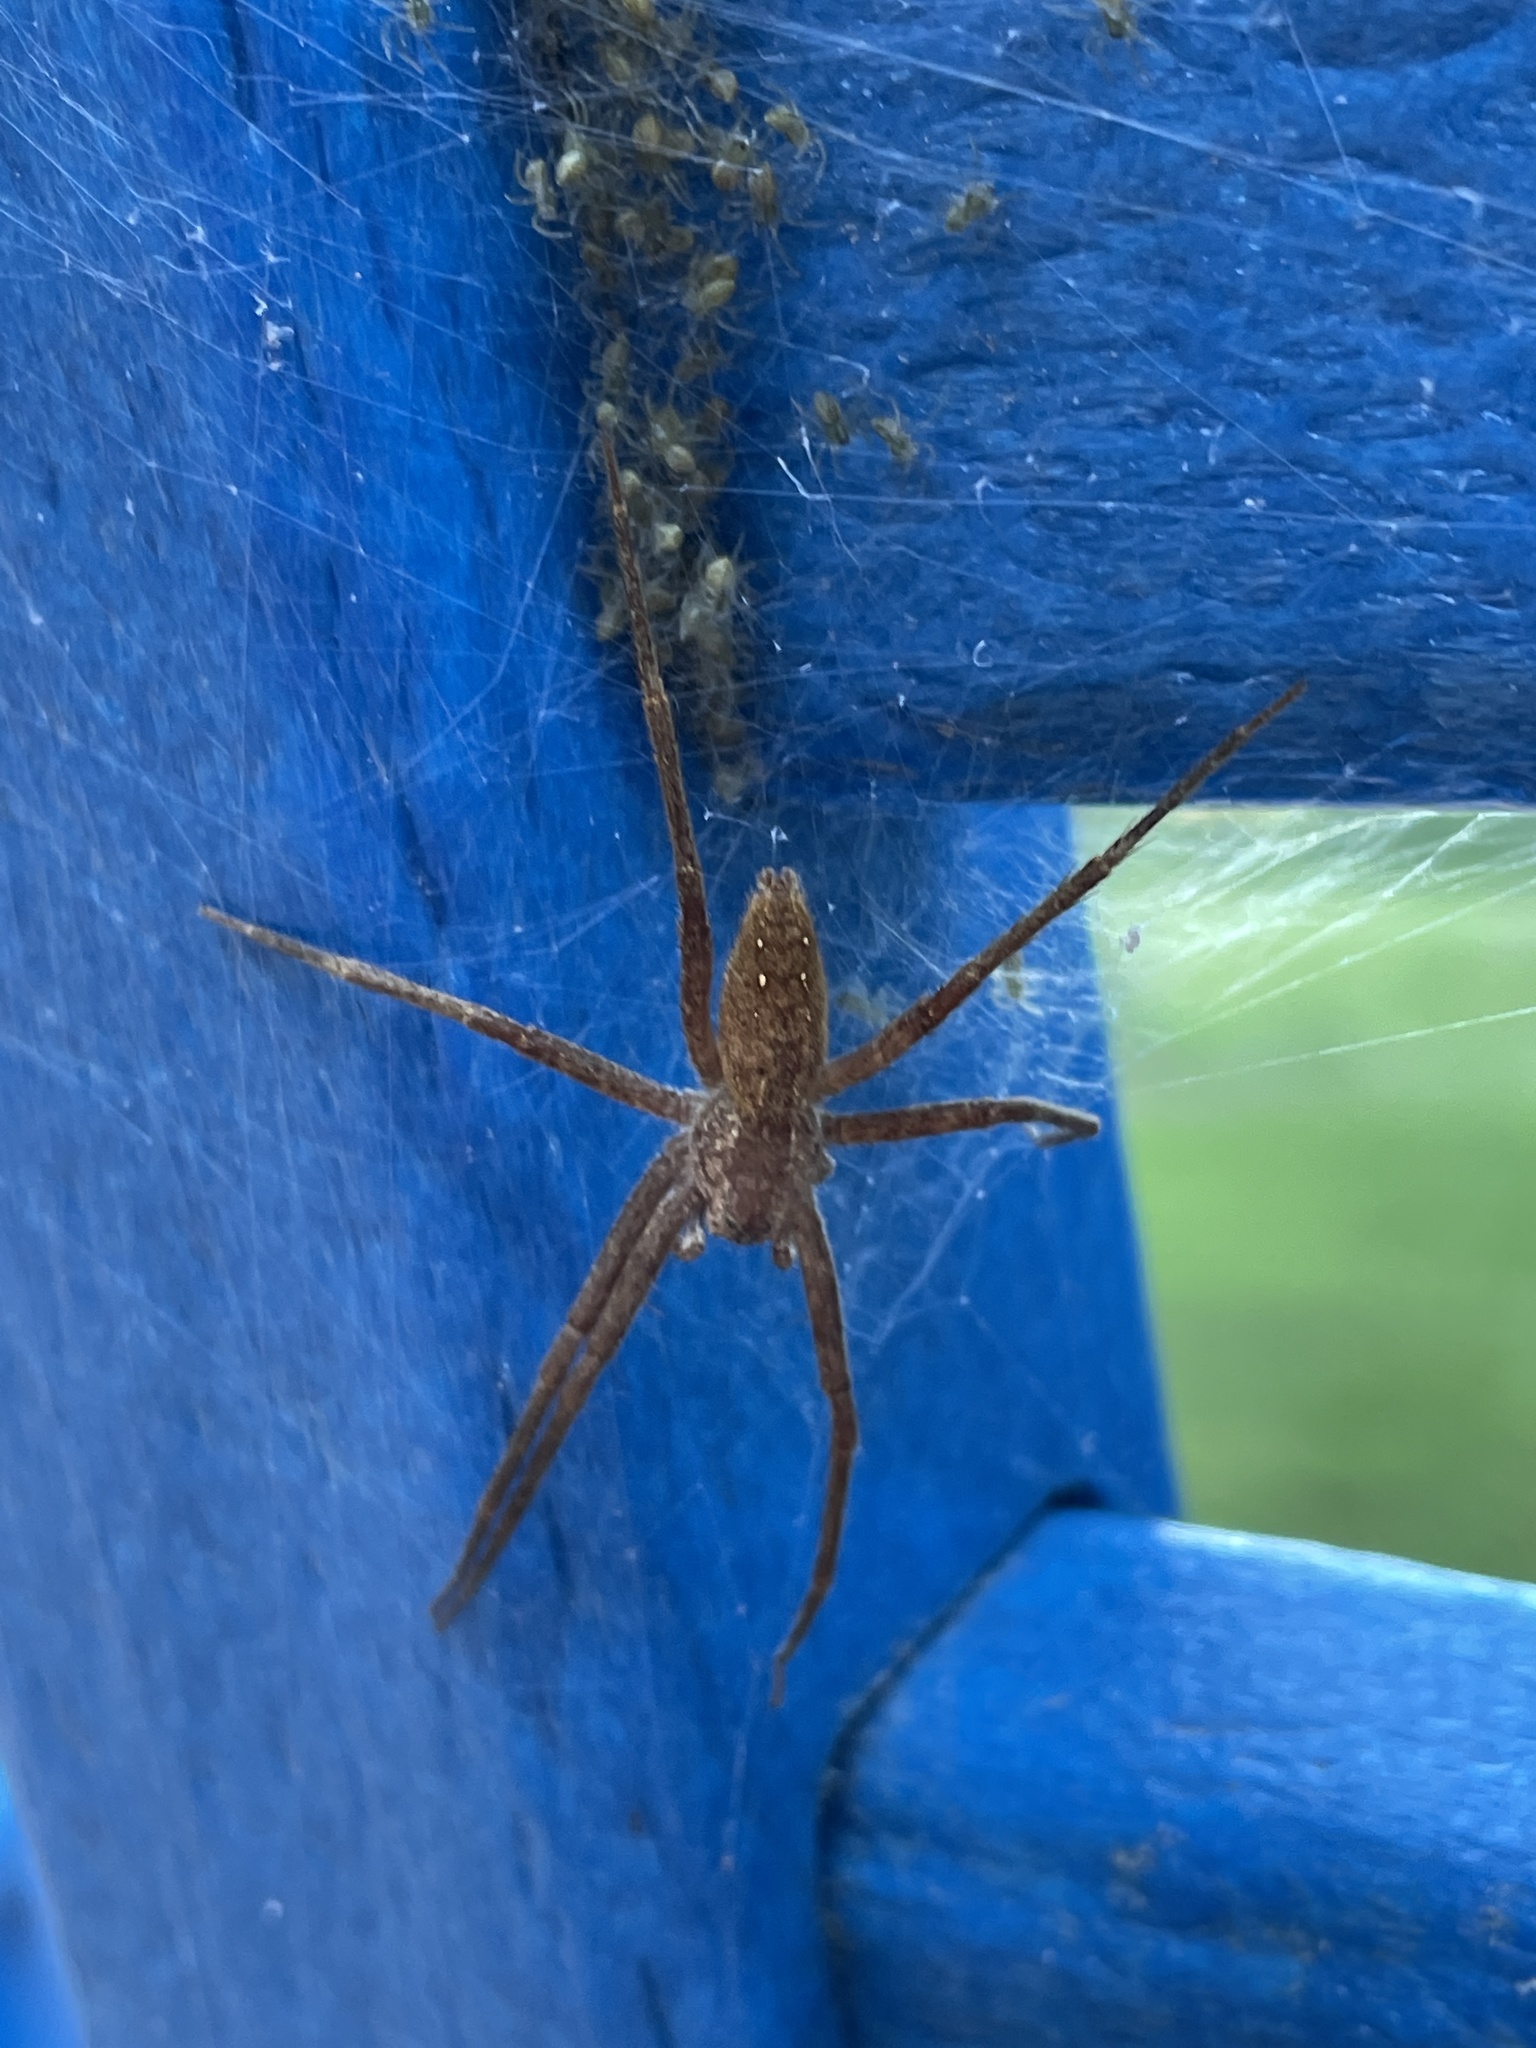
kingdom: Animalia
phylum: Arthropoda
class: Arachnida
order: Araneae
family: Pisauridae
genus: Pisaurina
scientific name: Pisaurina mira
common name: American nursery web spider
